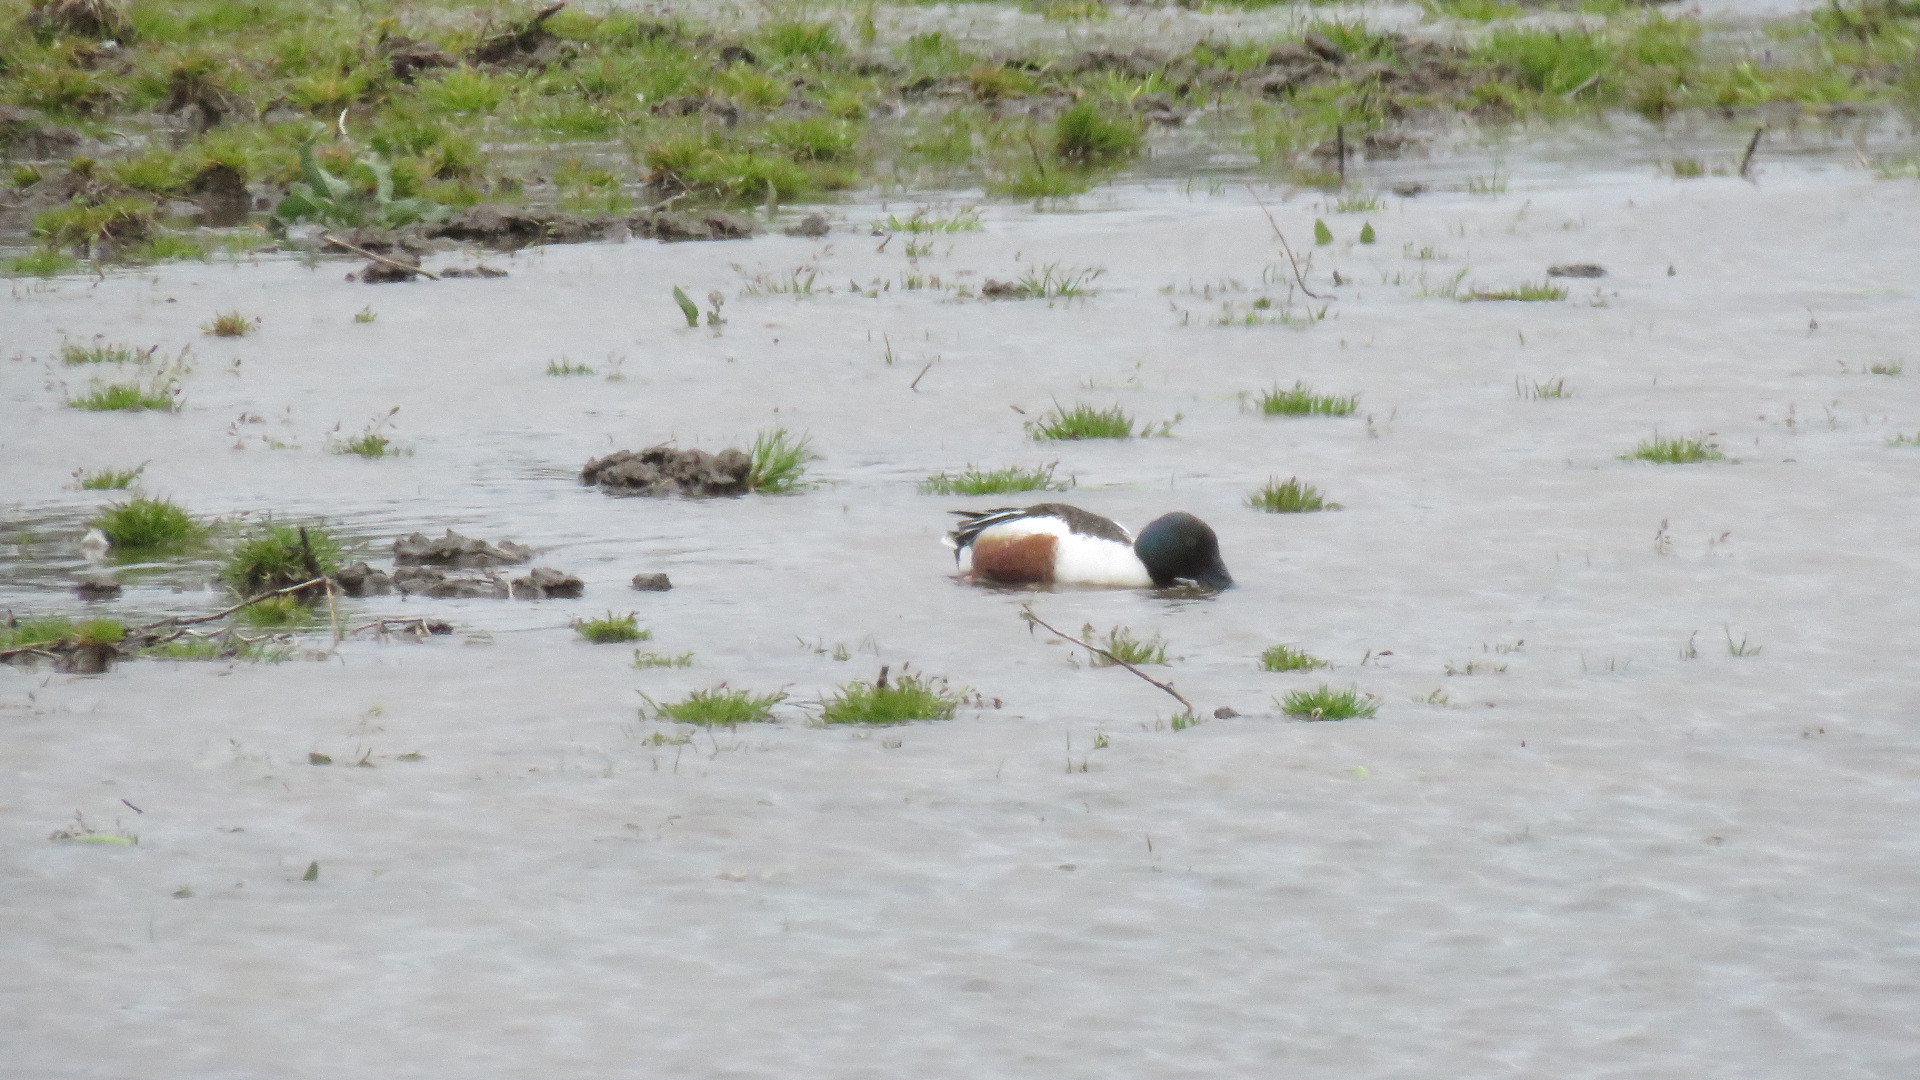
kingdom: Animalia
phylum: Chordata
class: Aves
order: Anseriformes
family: Anatidae
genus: Spatula
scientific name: Spatula clypeata
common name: Northern shoveler
